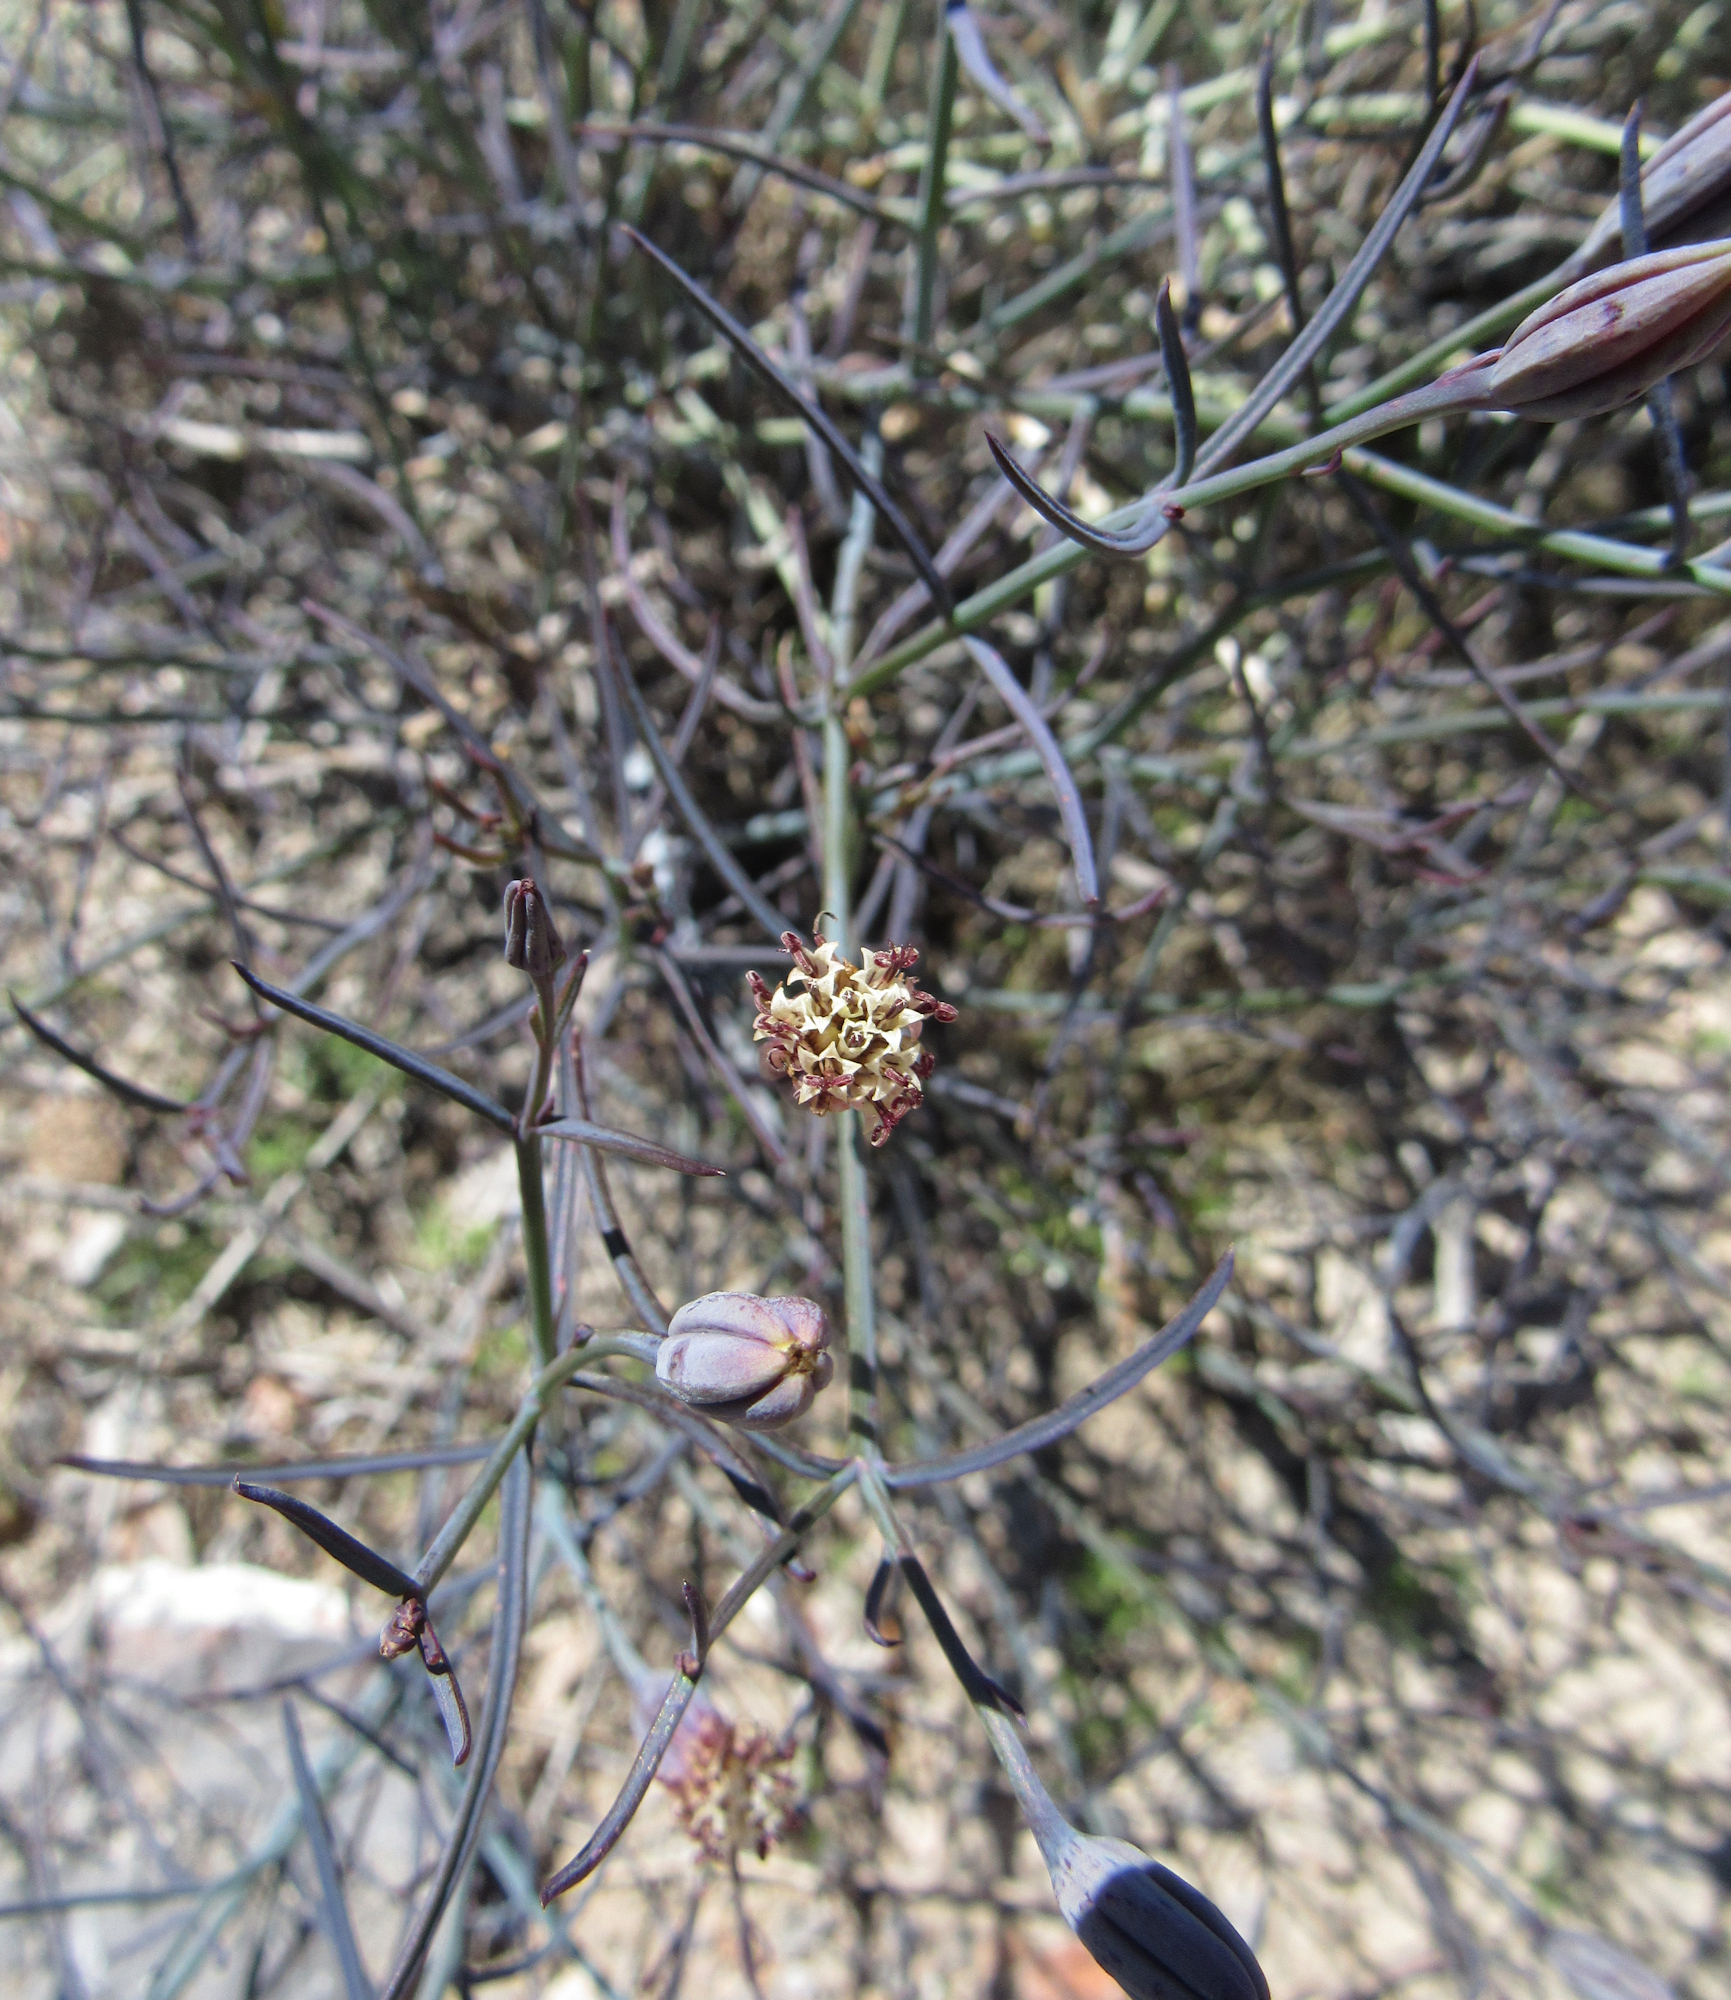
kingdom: Plantae
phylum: Tracheophyta
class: Magnoliopsida
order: Asterales
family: Asteraceae
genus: Porophyllum
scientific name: Porophyllum gracile
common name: Odora
